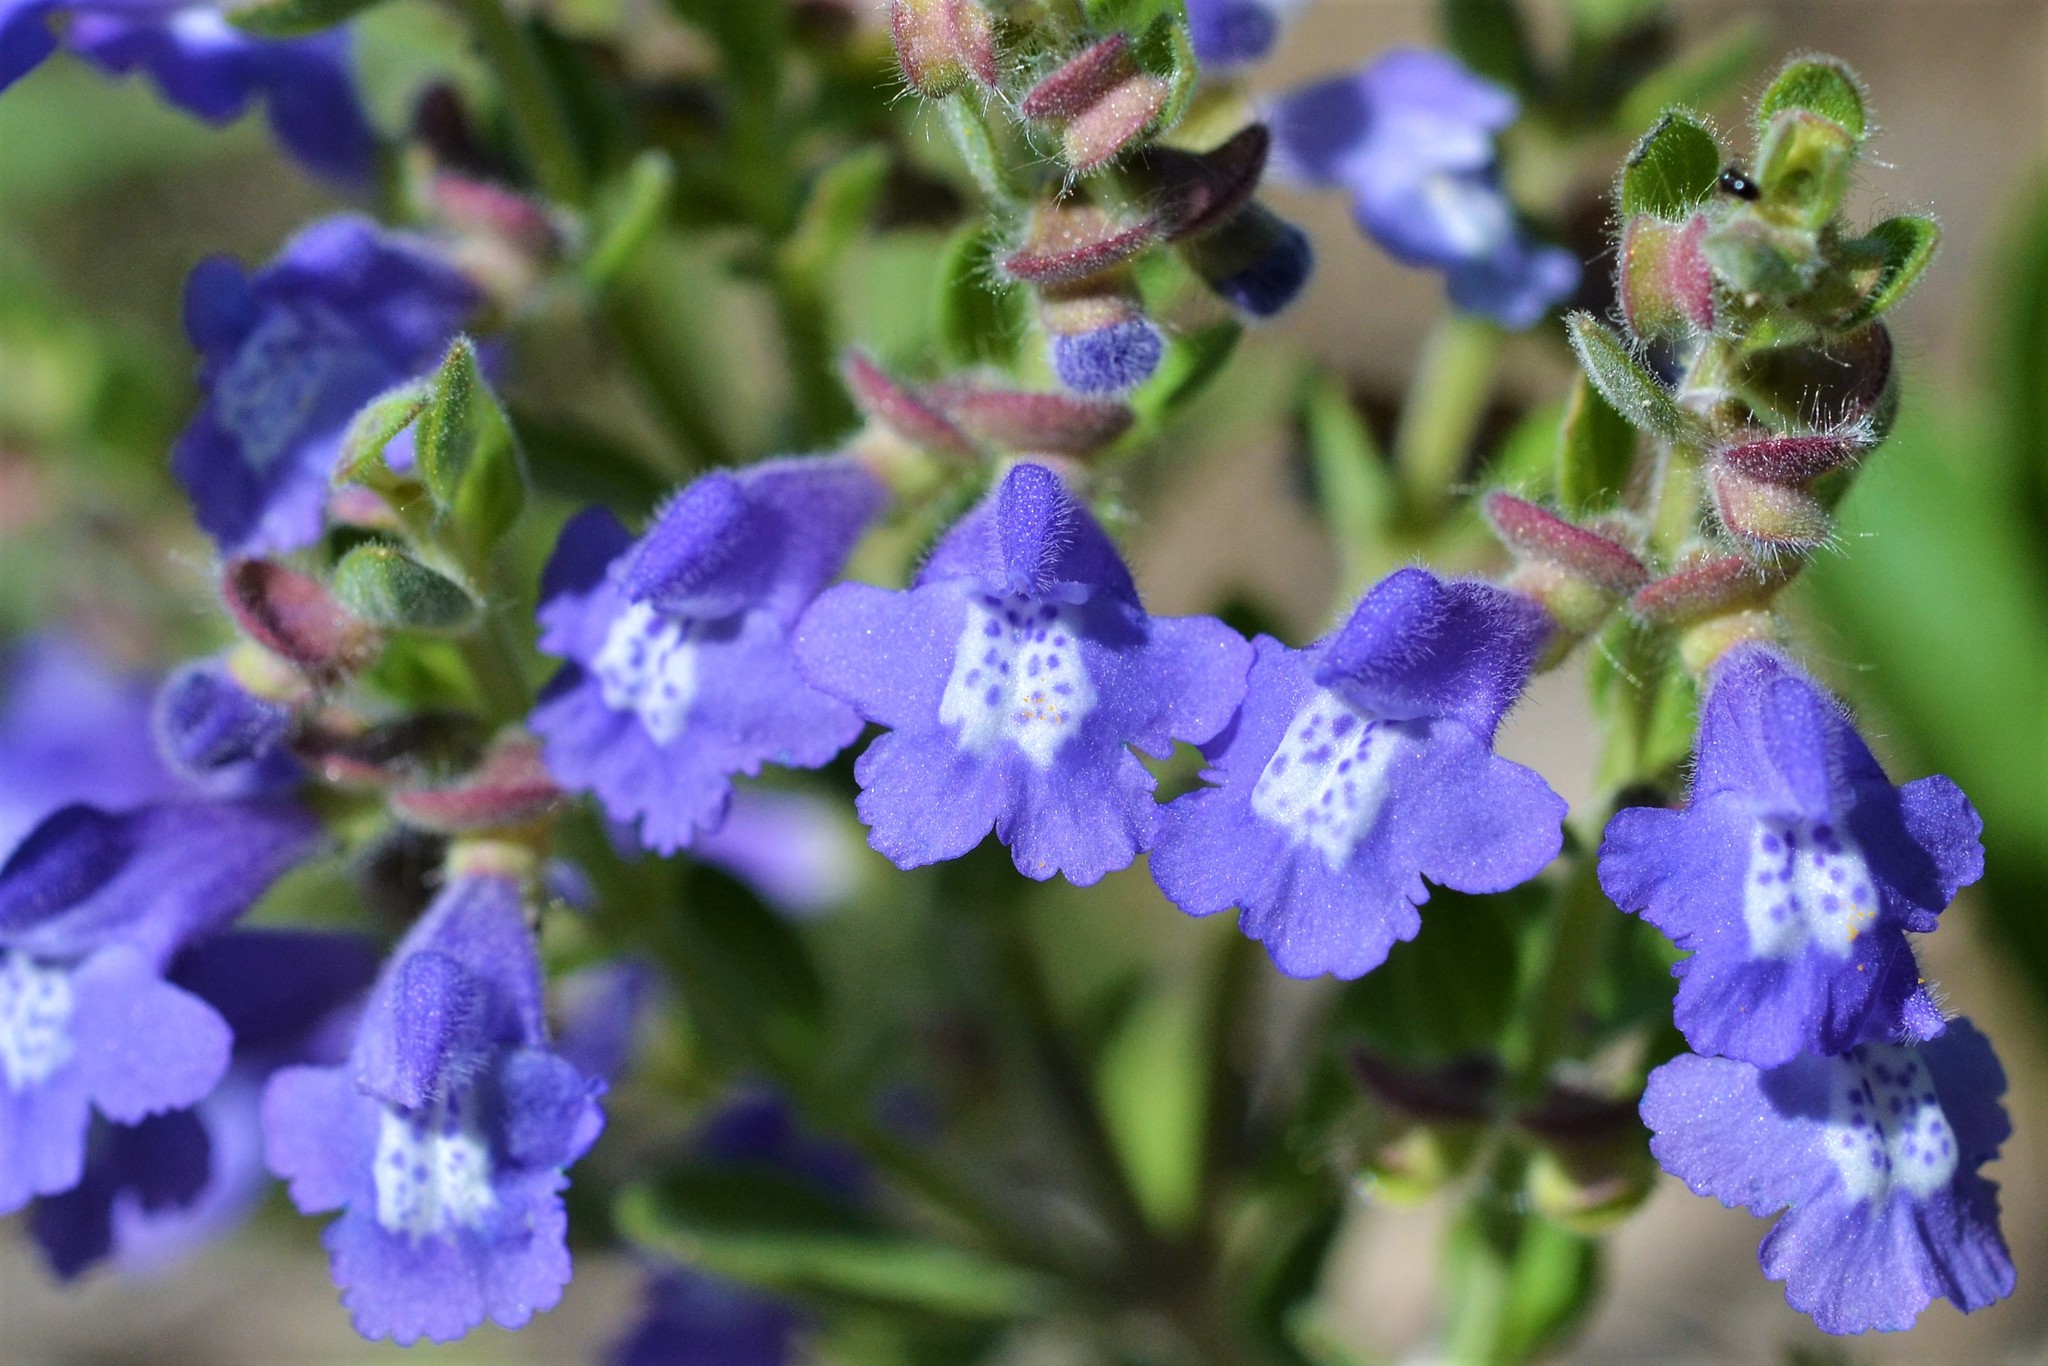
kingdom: Plantae
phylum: Tracheophyta
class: Magnoliopsida
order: Lamiales
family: Lamiaceae
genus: Scutellaria
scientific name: Scutellaria drummondii
